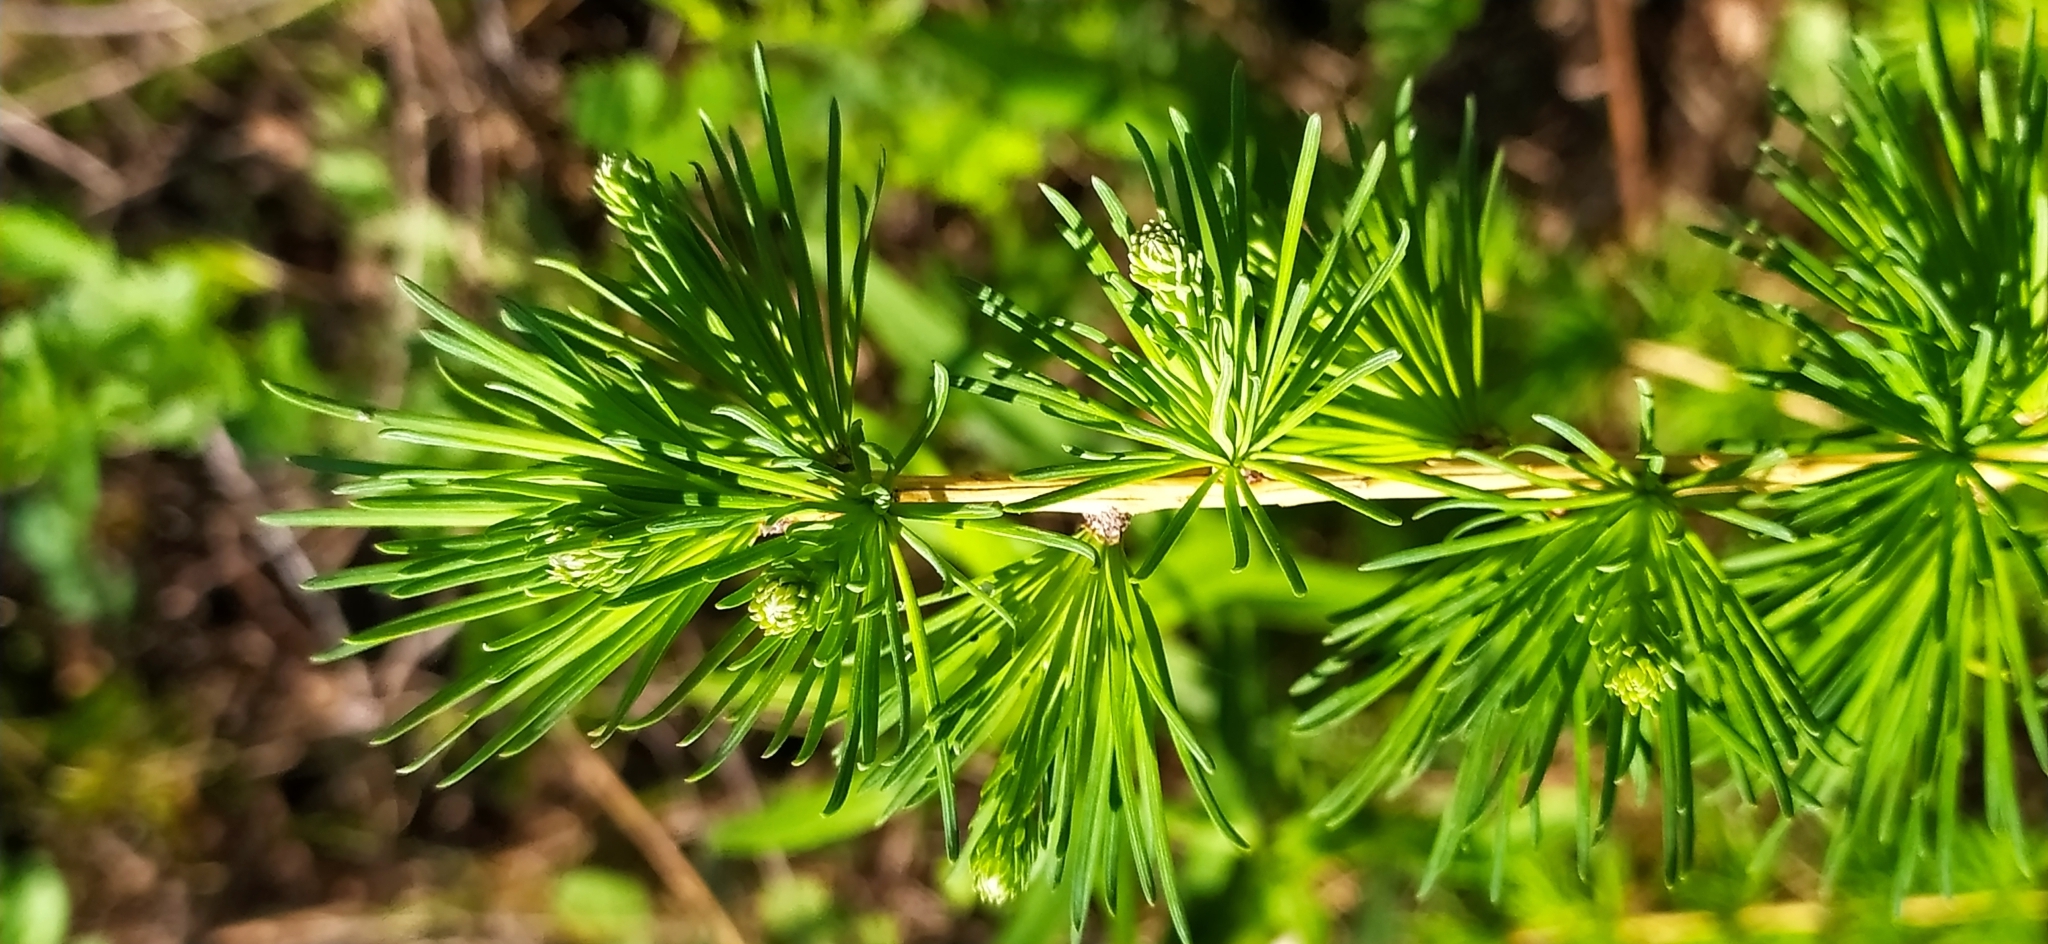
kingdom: Plantae
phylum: Tracheophyta
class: Pinopsida
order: Pinales
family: Pinaceae
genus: Larix
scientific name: Larix sibirica
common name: Siberian larch
